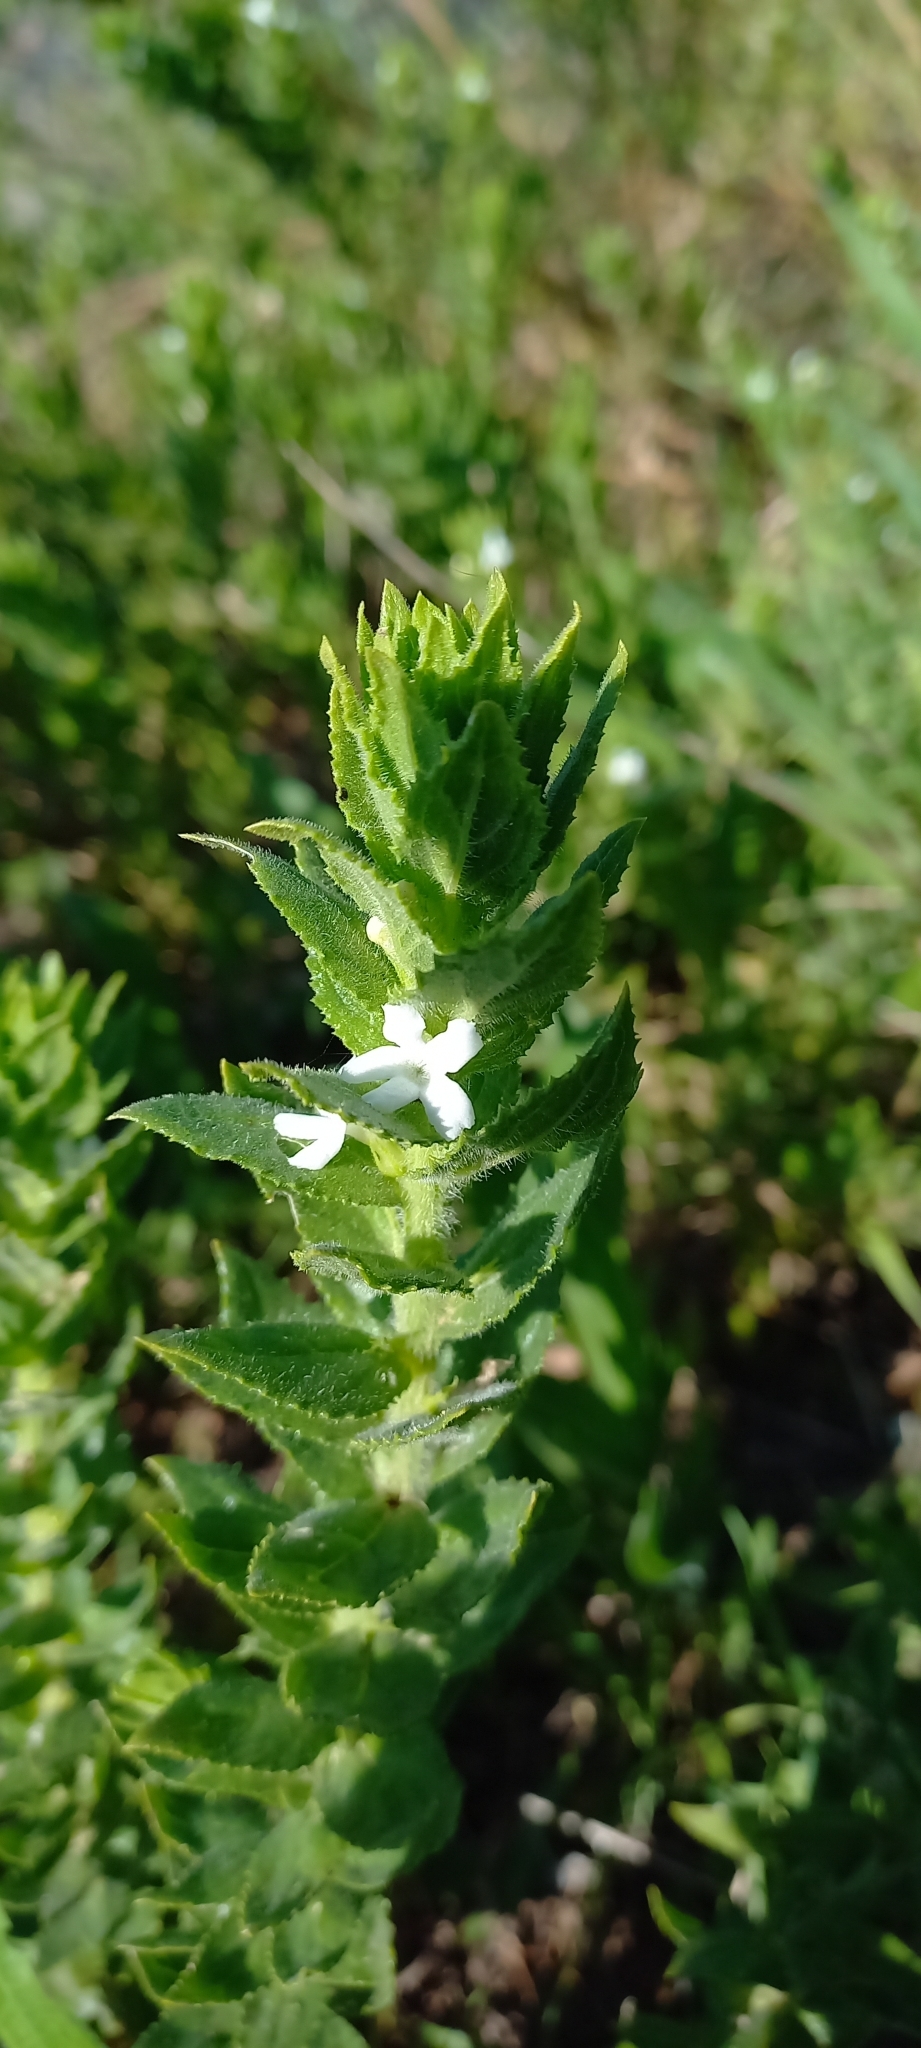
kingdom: Plantae
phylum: Tracheophyta
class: Magnoliopsida
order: Lamiales
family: Scrophulariaceae
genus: Oftia
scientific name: Oftia africana
